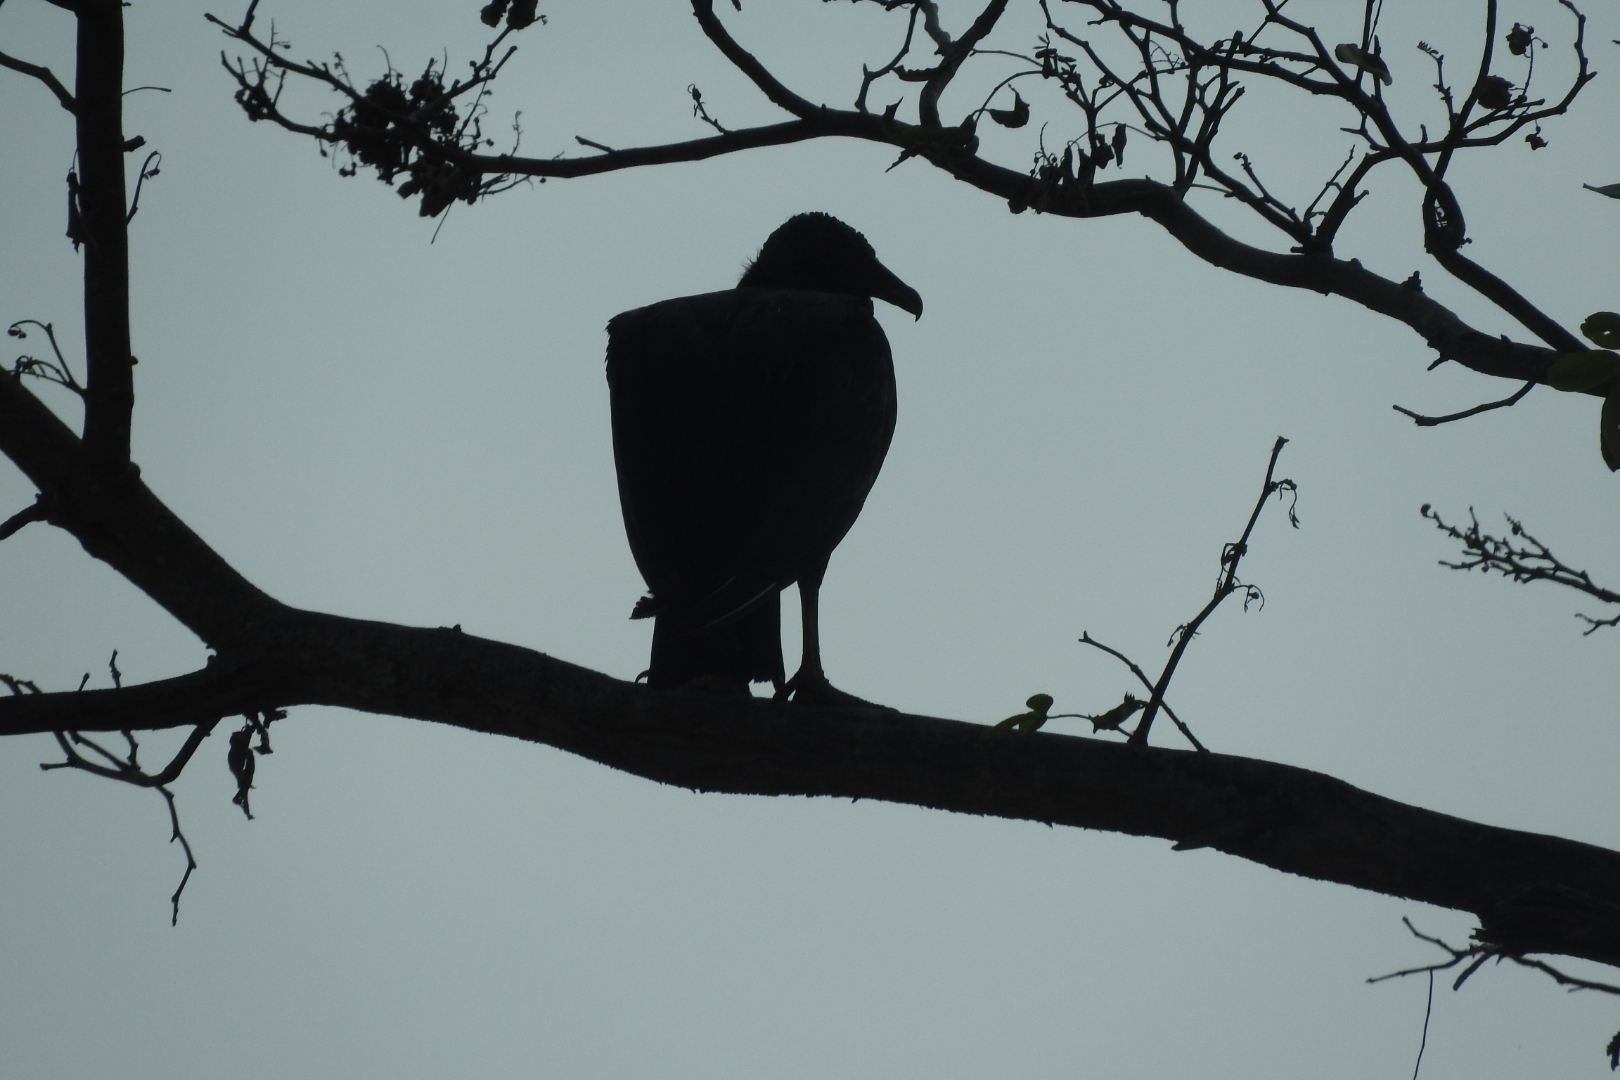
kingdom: Animalia
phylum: Chordata
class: Aves
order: Accipitriformes
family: Cathartidae
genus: Coragyps
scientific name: Coragyps atratus
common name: Black vulture
